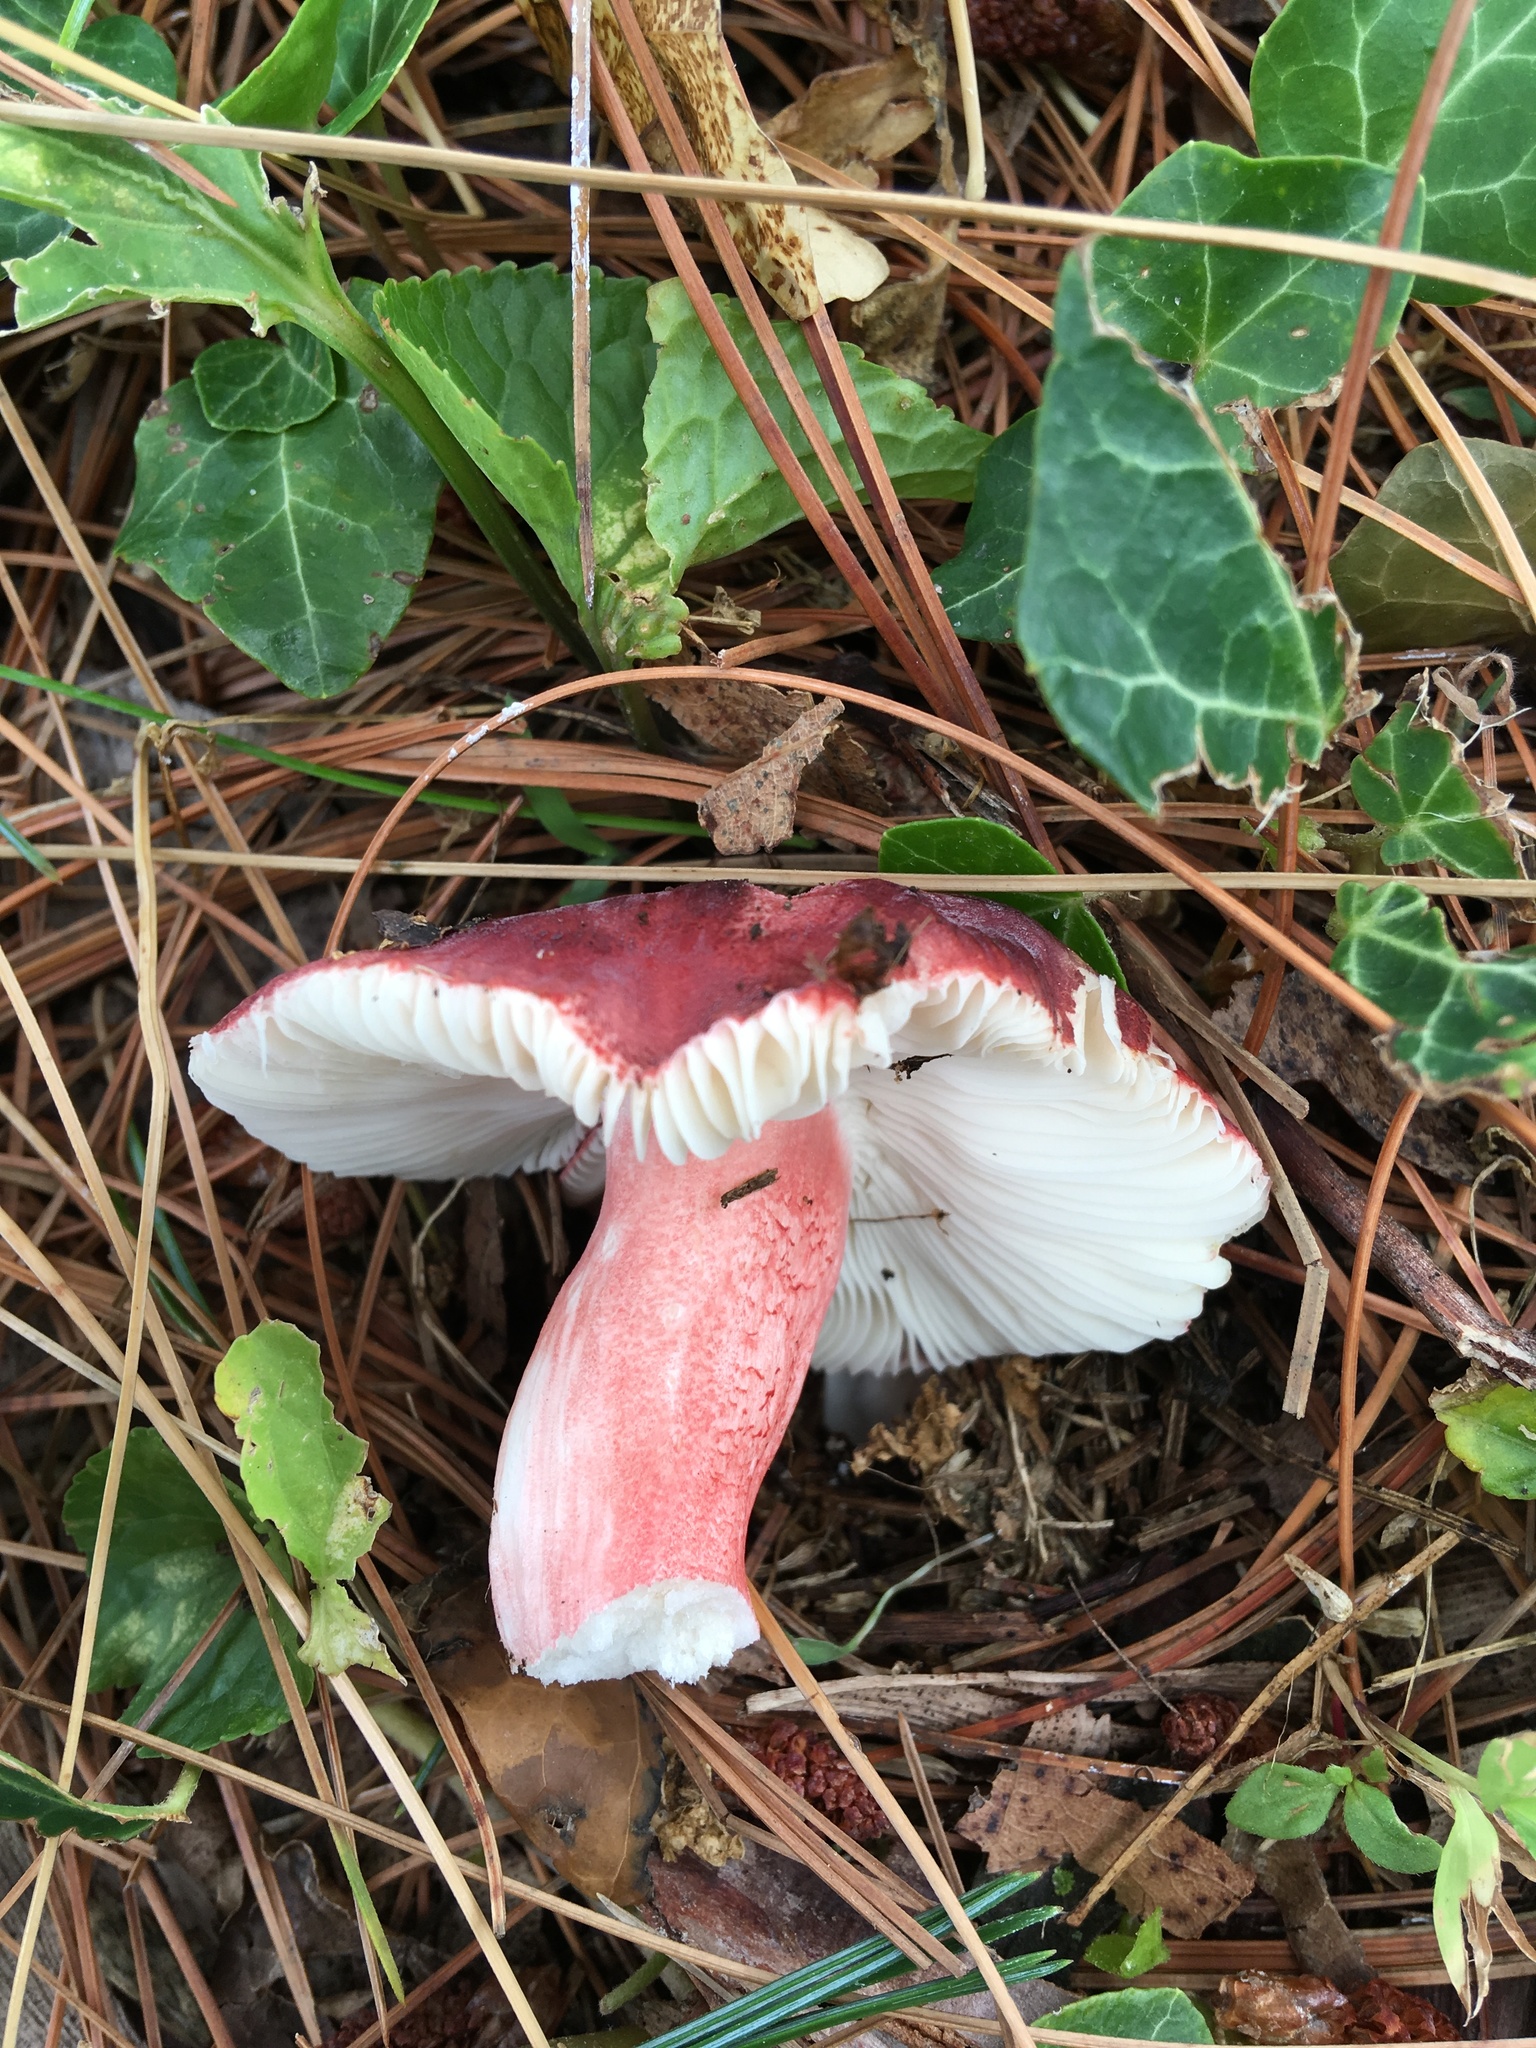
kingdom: Fungi
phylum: Basidiomycota
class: Agaricomycetes
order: Russulales
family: Russulaceae
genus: Russula
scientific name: Russula mariae
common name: Purple-bloom russula
